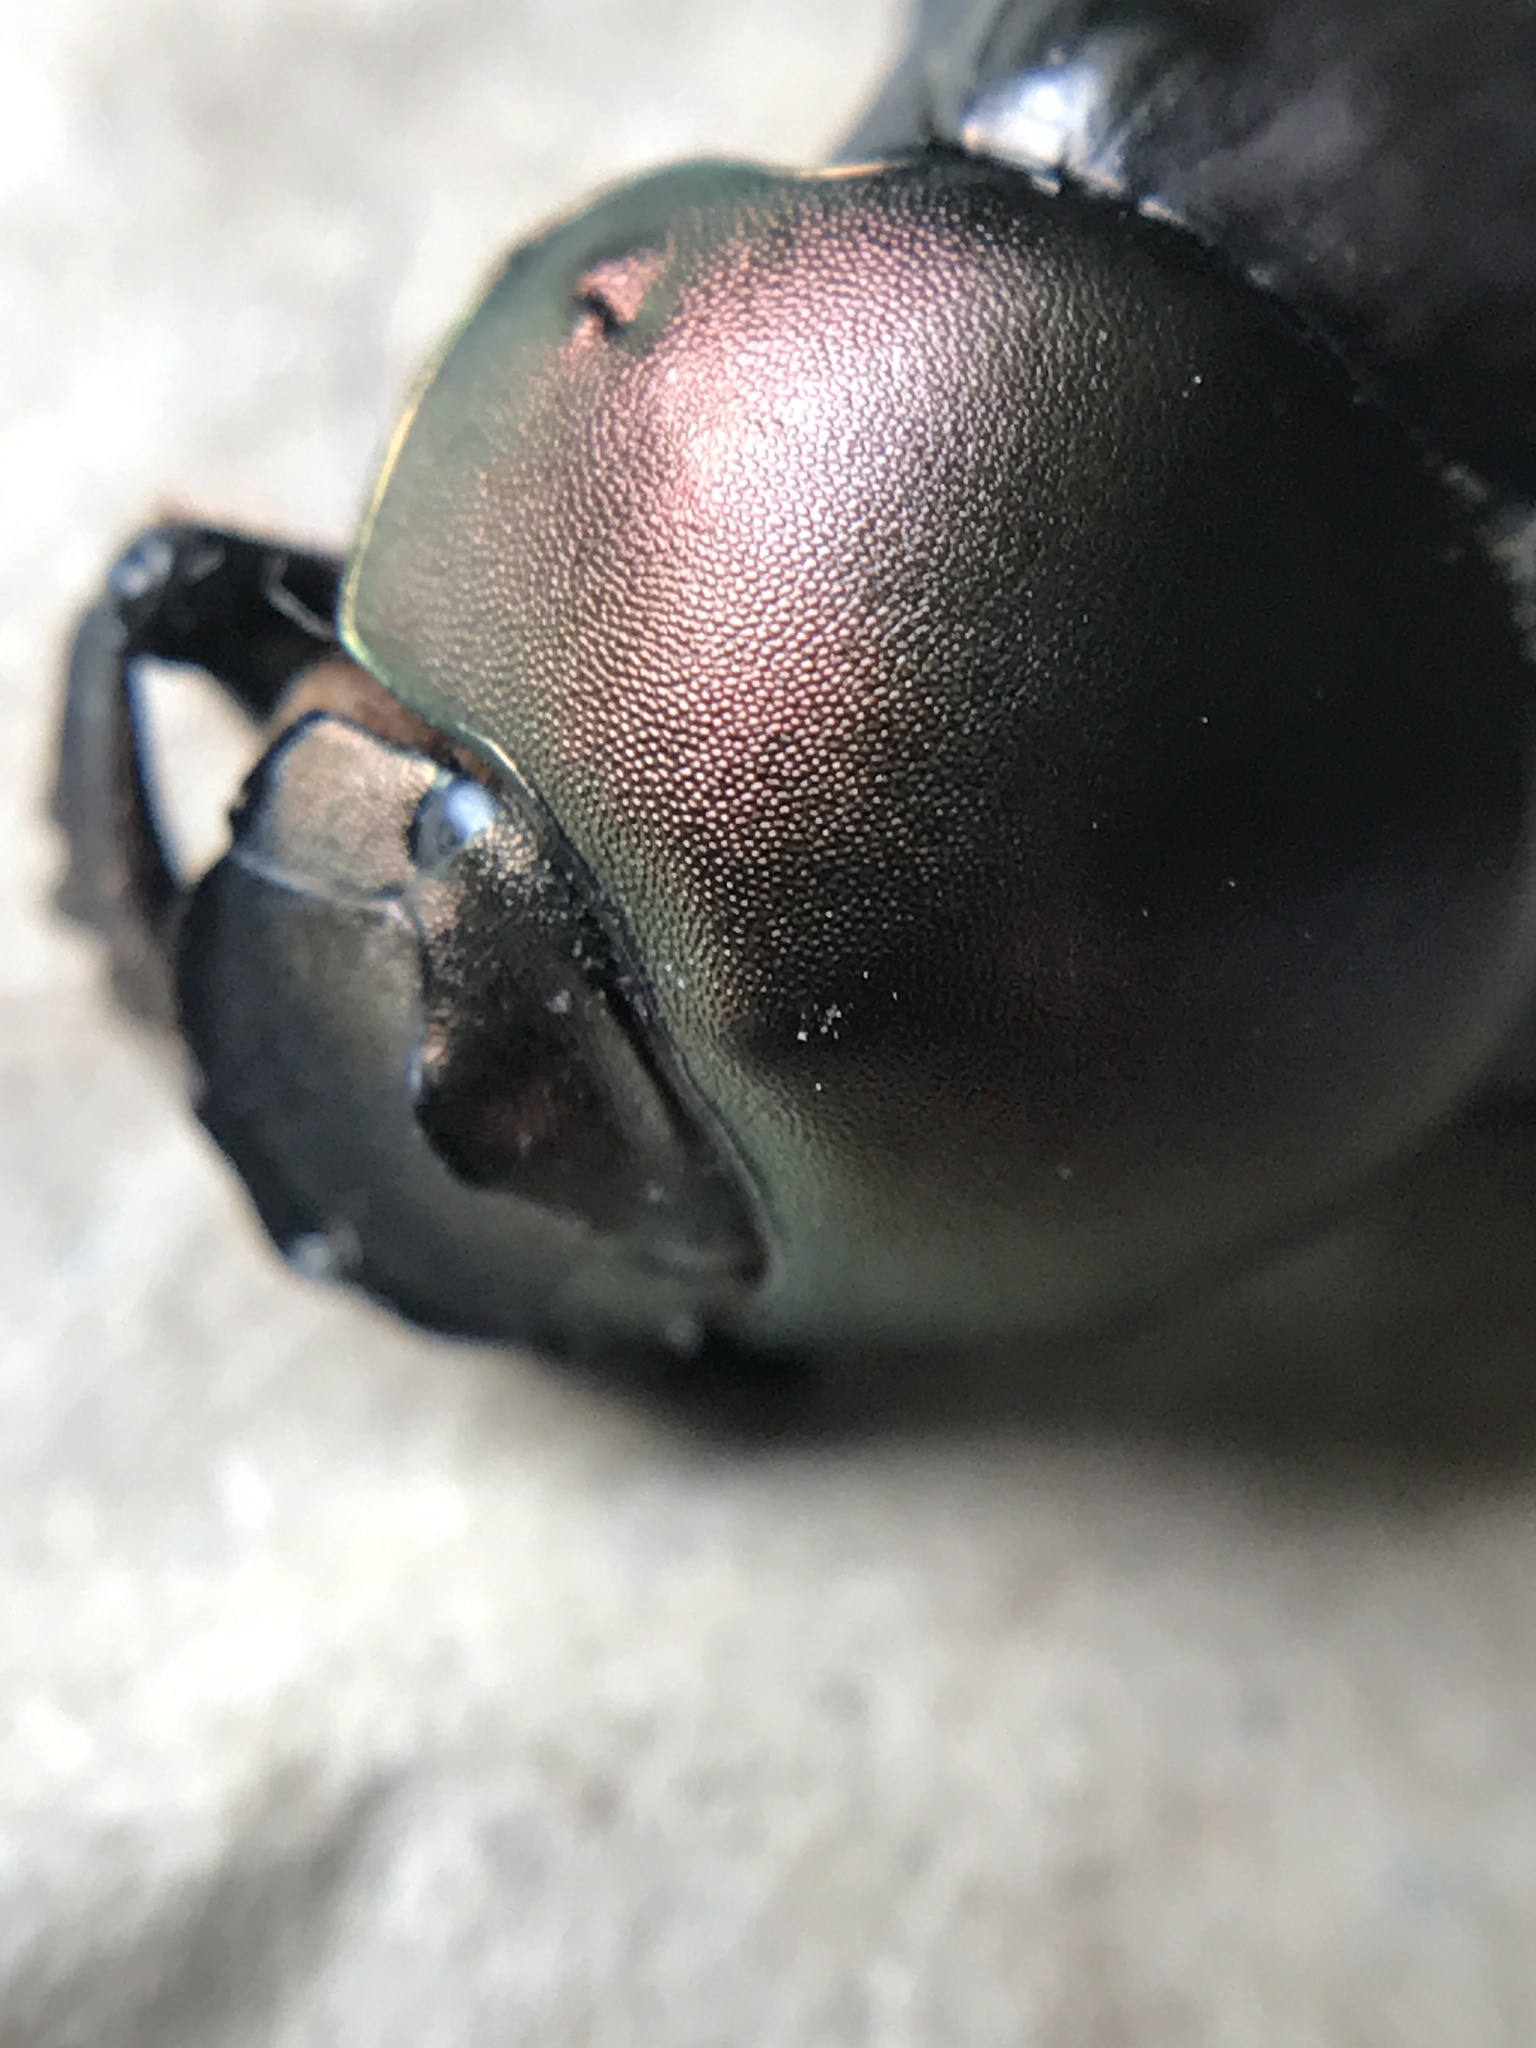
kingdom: Animalia
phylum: Arthropoda
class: Insecta
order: Coleoptera
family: Scarabaeidae
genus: Gromphas
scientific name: Gromphas inermis
